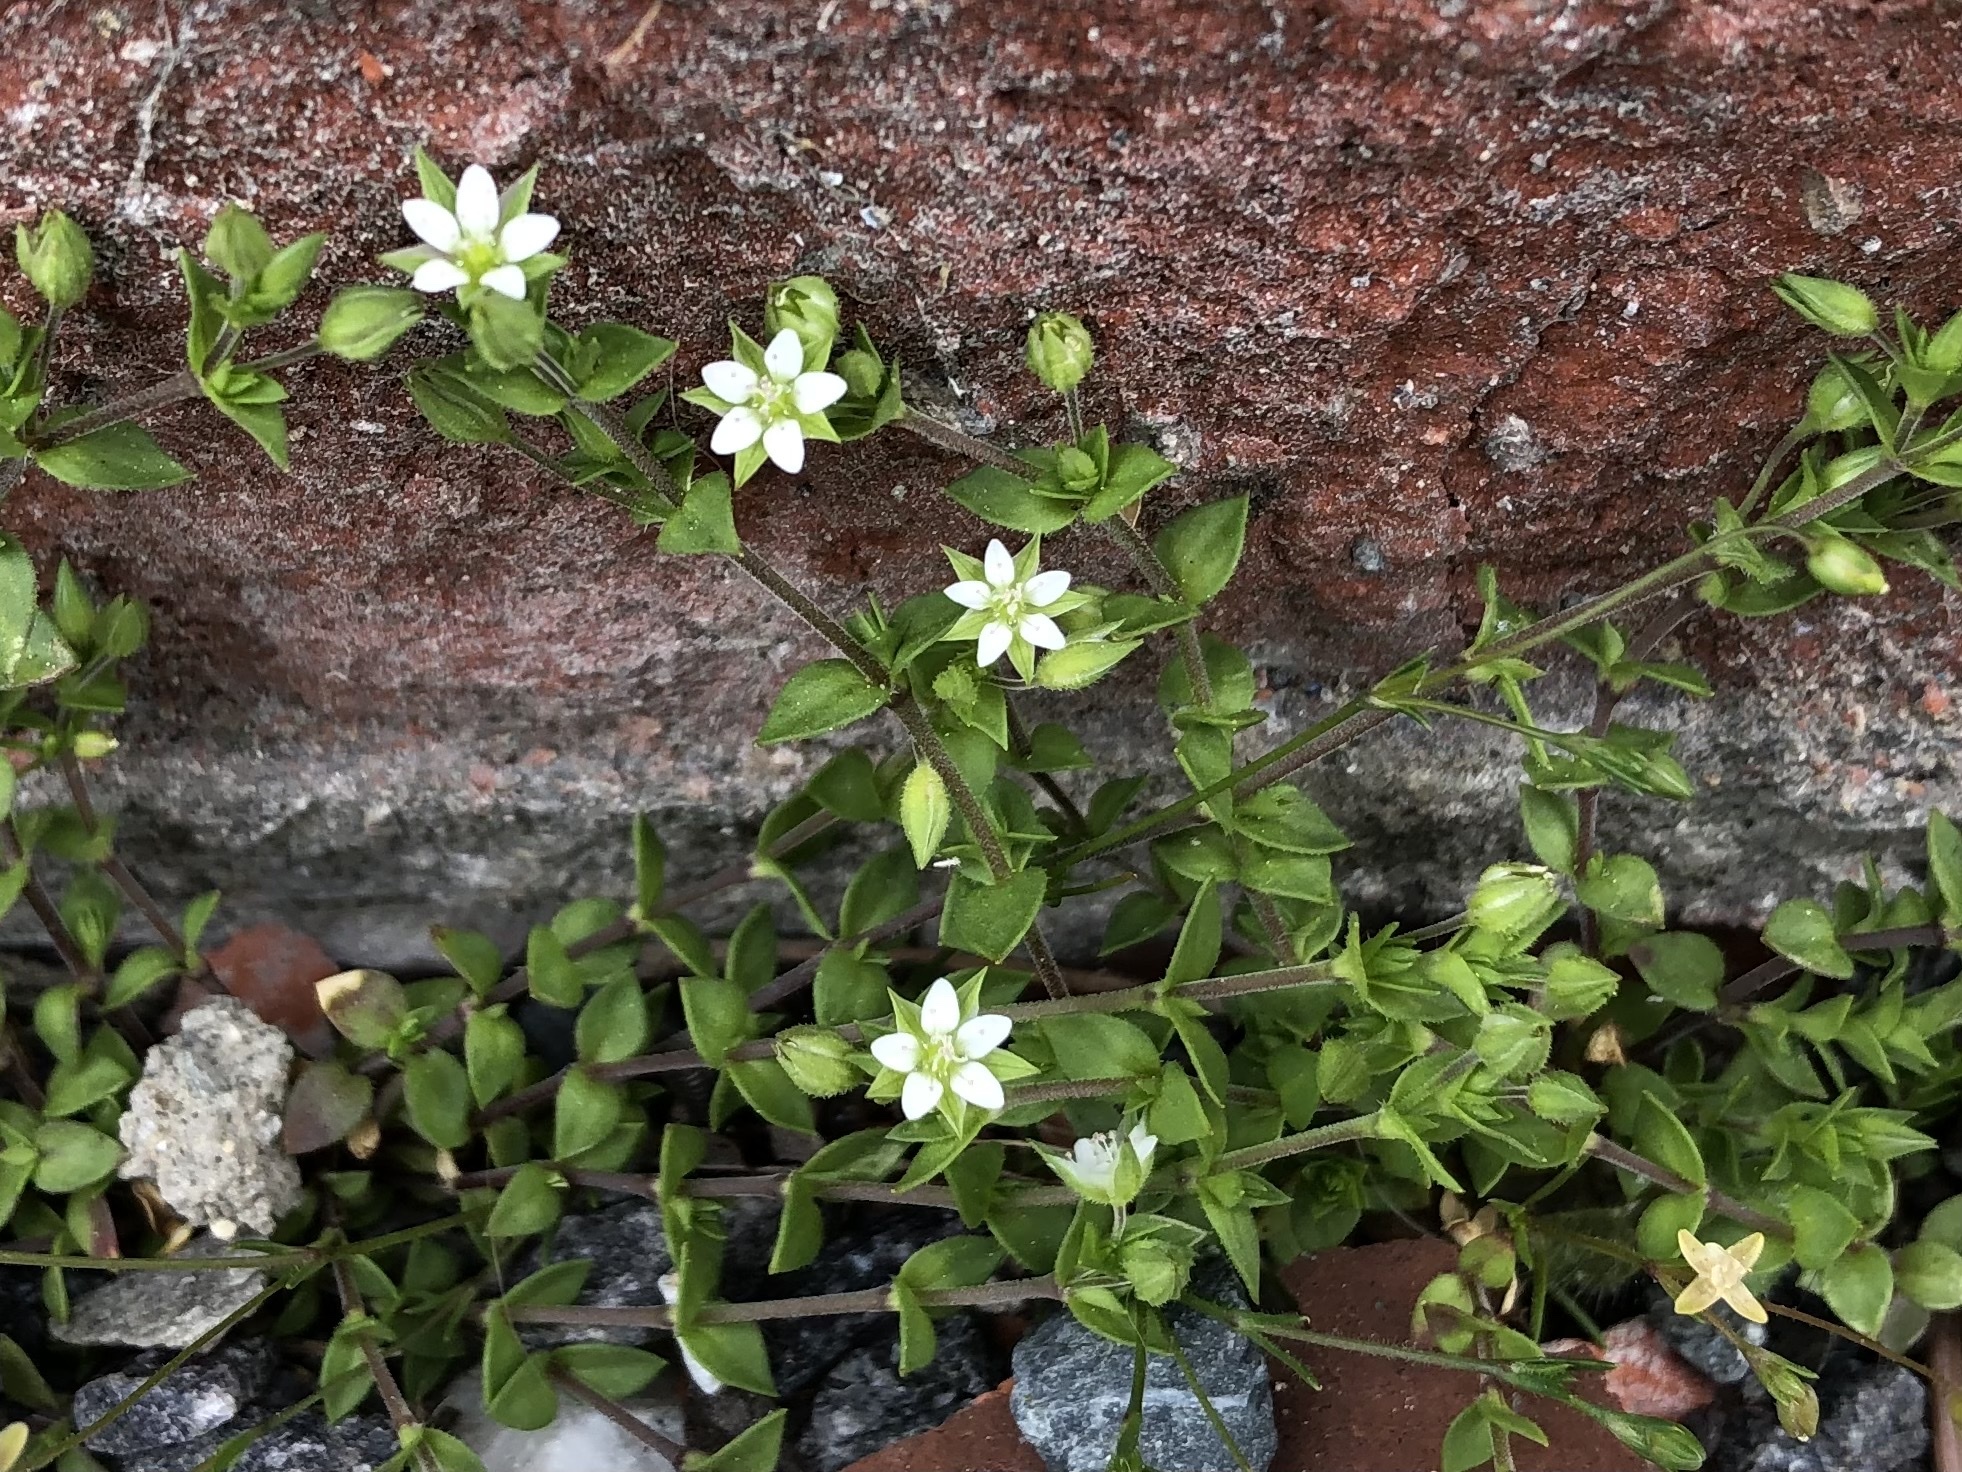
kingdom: Plantae
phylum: Tracheophyta
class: Magnoliopsida
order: Caryophyllales
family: Caryophyllaceae
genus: Arenaria
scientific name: Arenaria serpyllifolia
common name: Thyme-leaved sandwort
